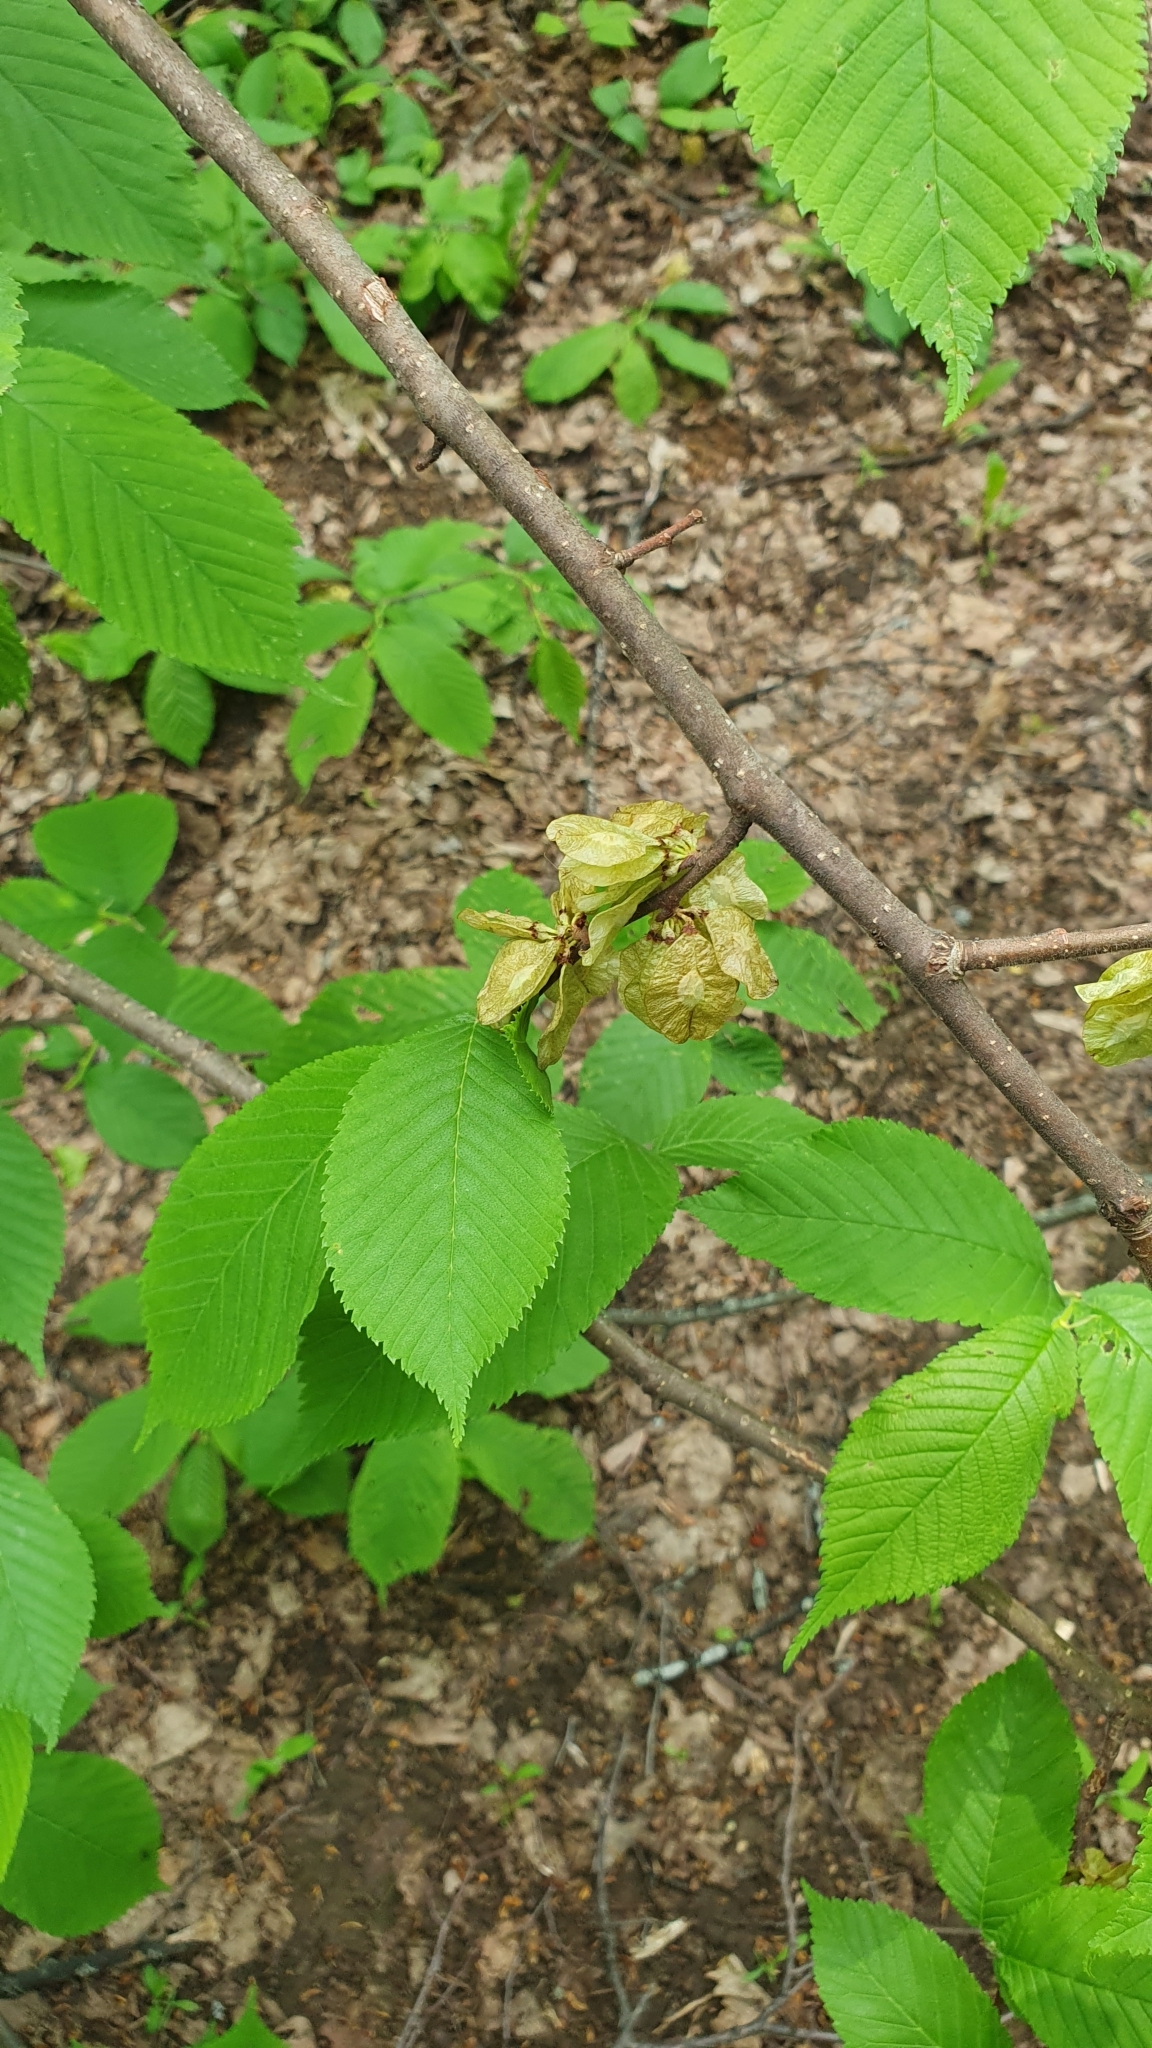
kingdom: Plantae
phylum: Tracheophyta
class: Magnoliopsida
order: Rosales
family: Ulmaceae
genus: Ulmus
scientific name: Ulmus glabra
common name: Wych elm
